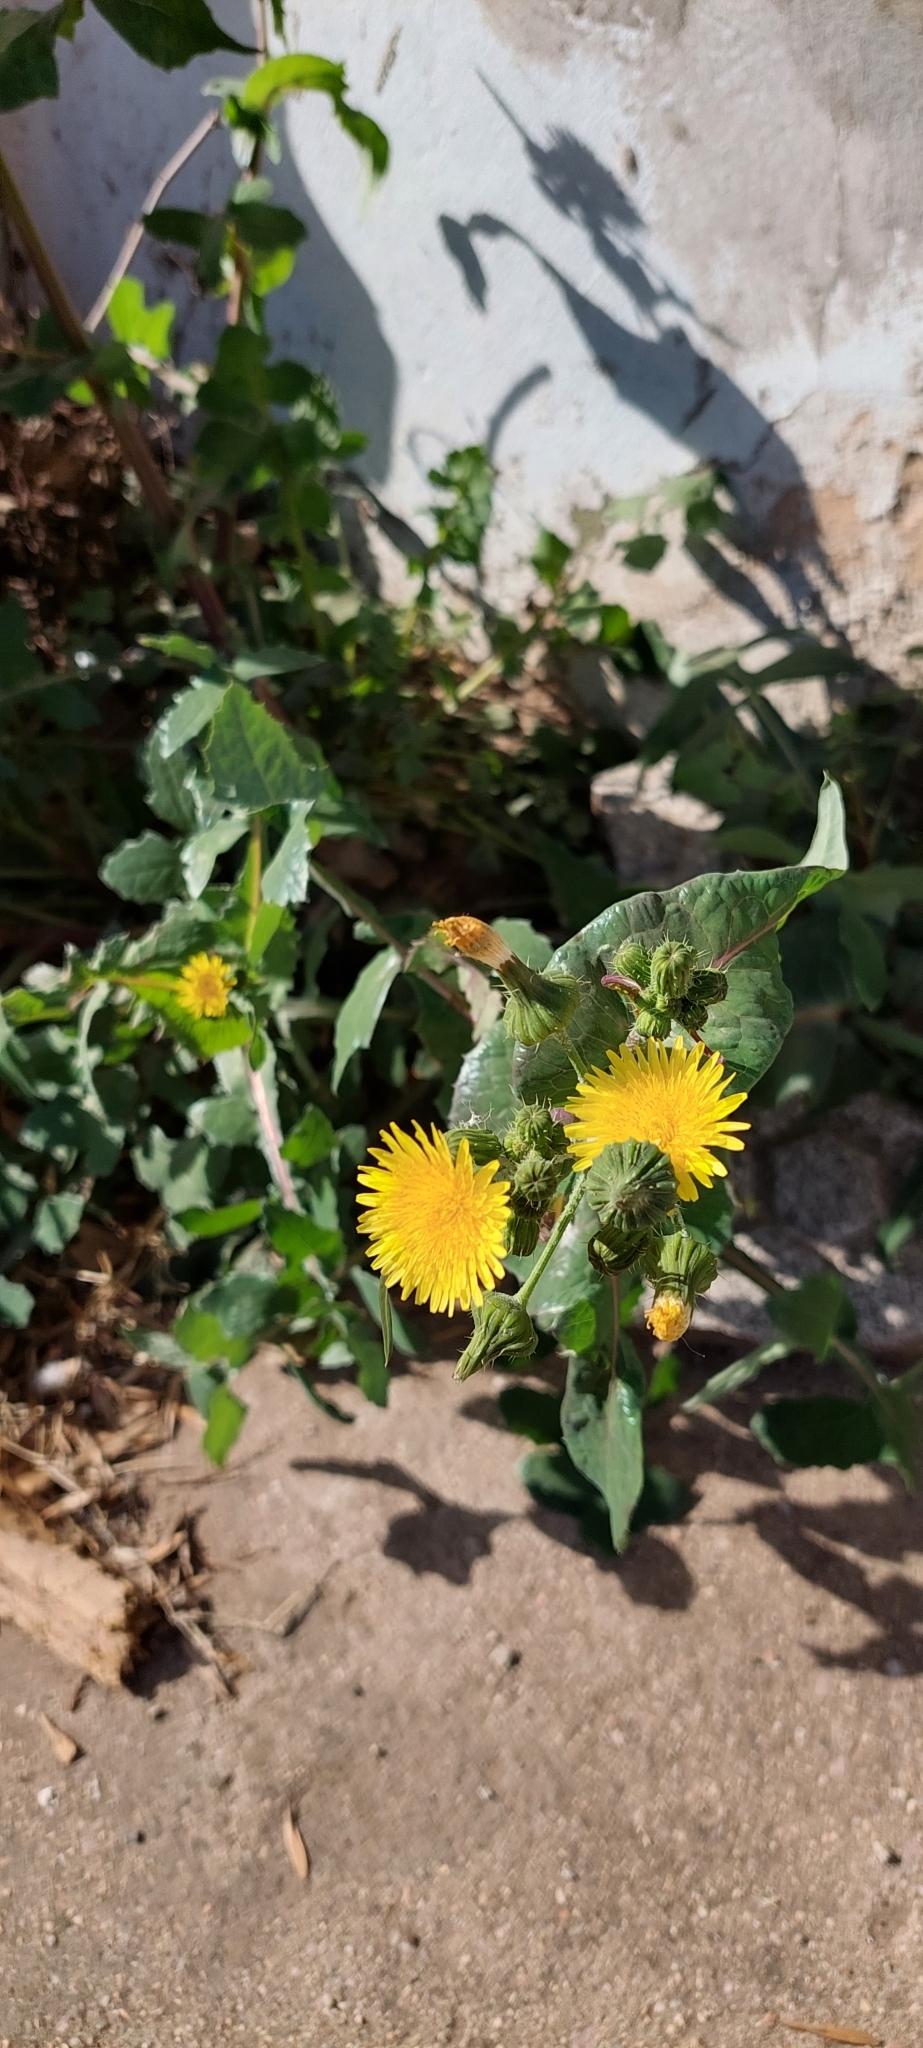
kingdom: Plantae
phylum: Tracheophyta
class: Magnoliopsida
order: Asterales
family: Asteraceae
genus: Sonchus
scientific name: Sonchus oleraceus
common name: Common sowthistle
